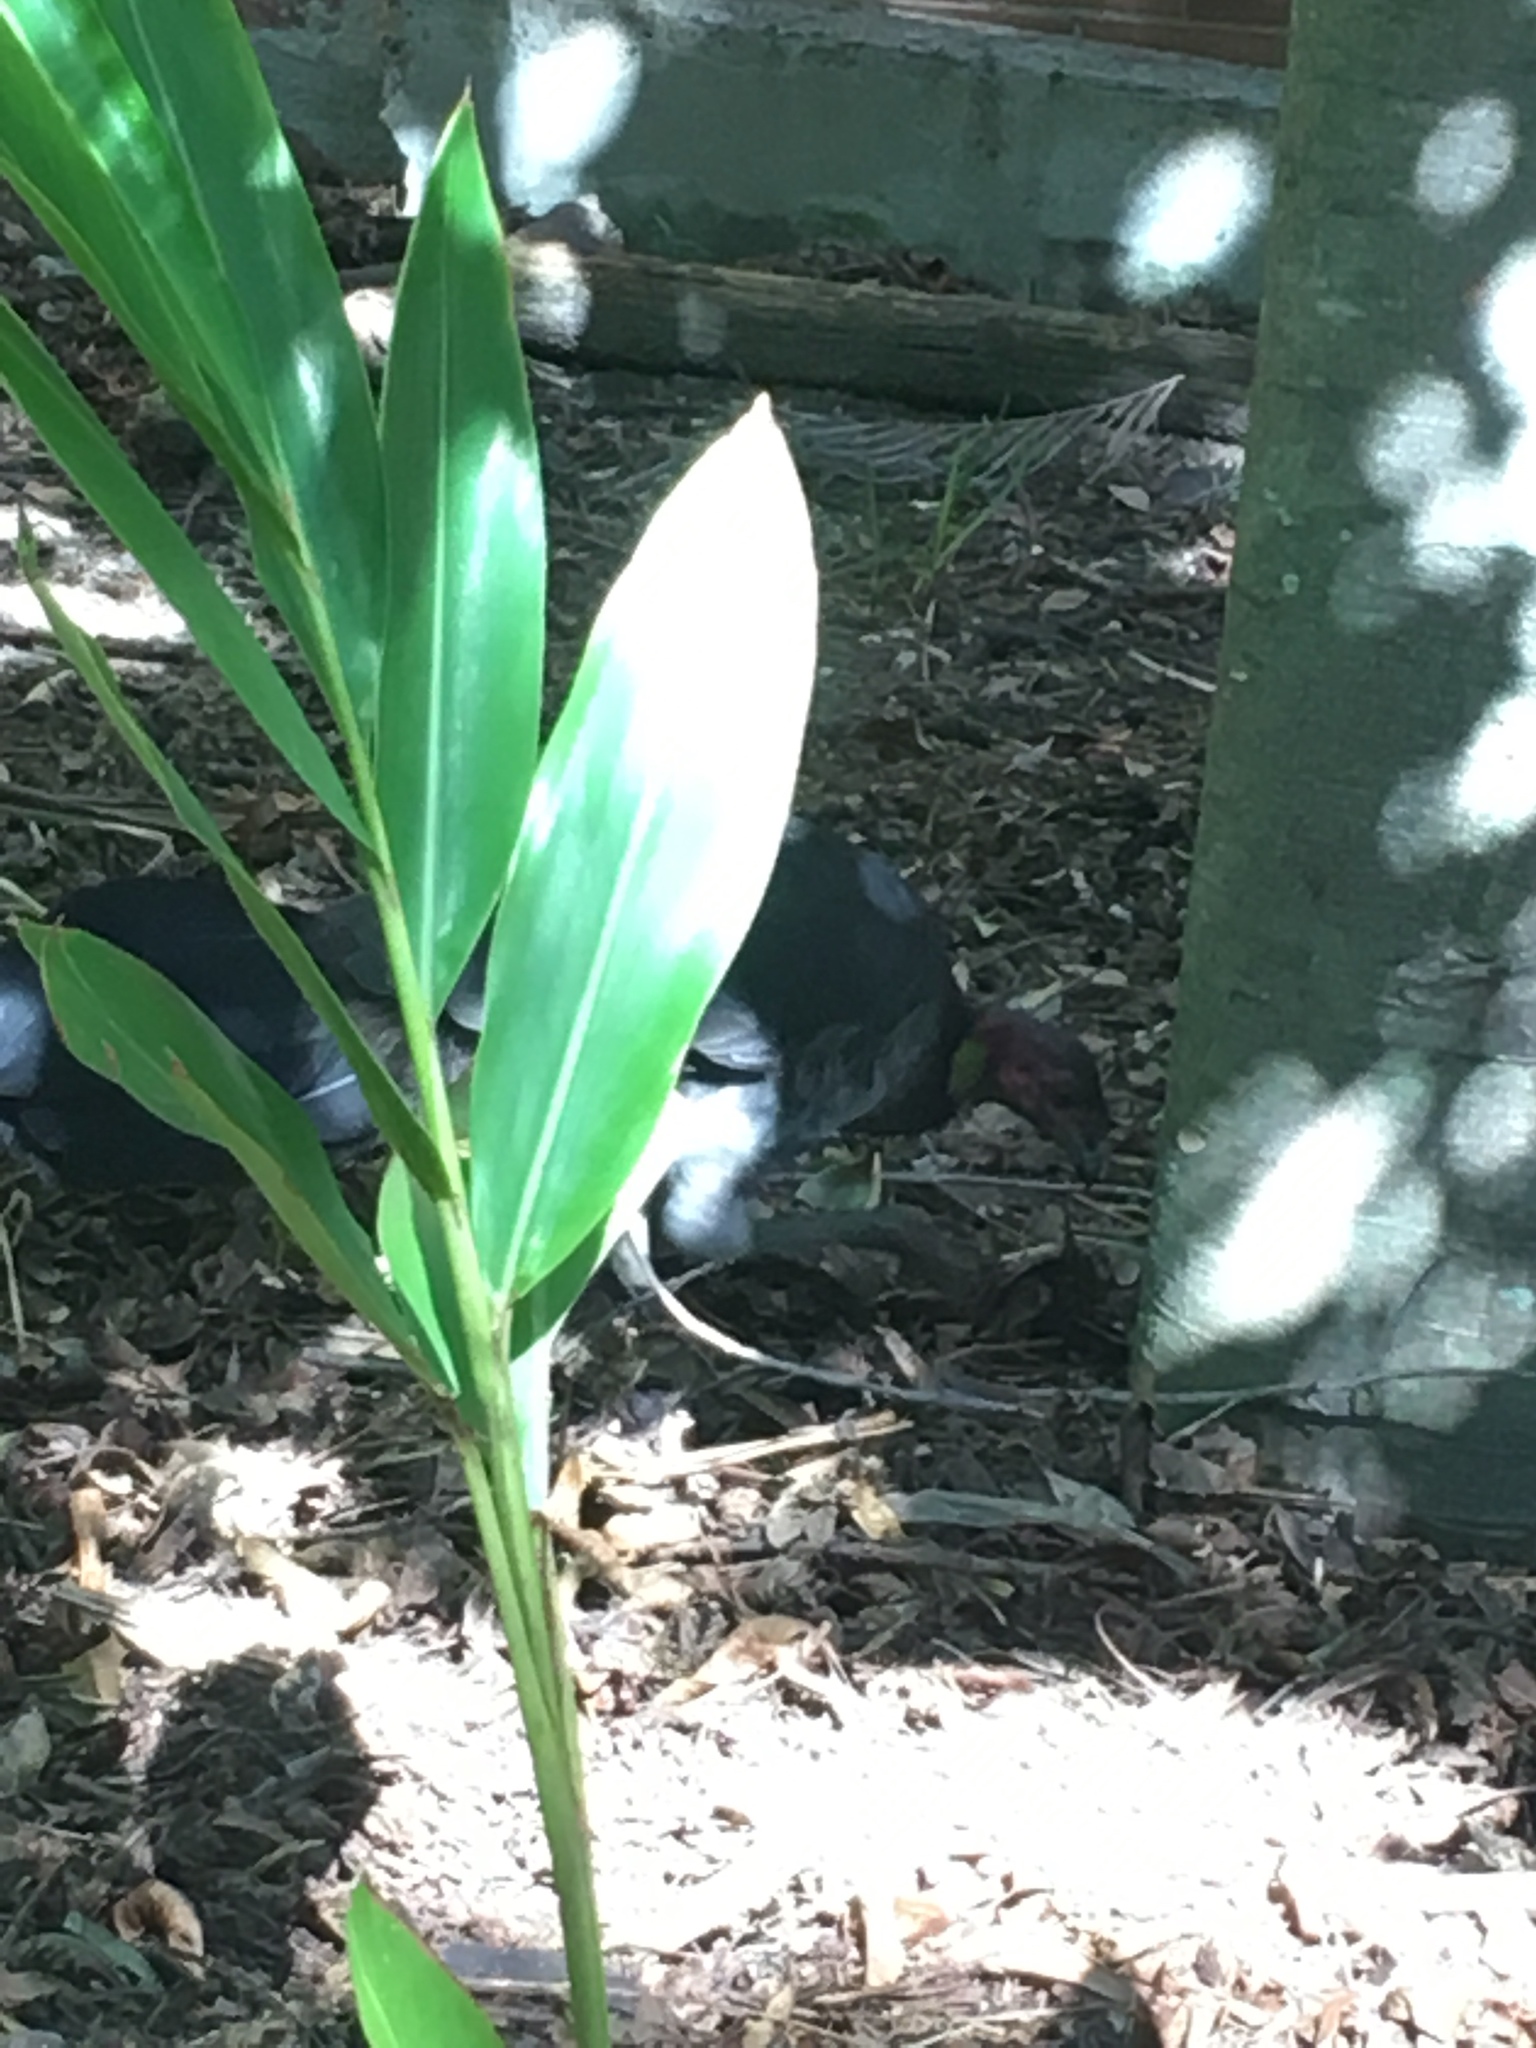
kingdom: Animalia
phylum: Chordata
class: Aves
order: Galliformes
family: Megapodiidae
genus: Alectura
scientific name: Alectura lathami
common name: Australian brushturkey
